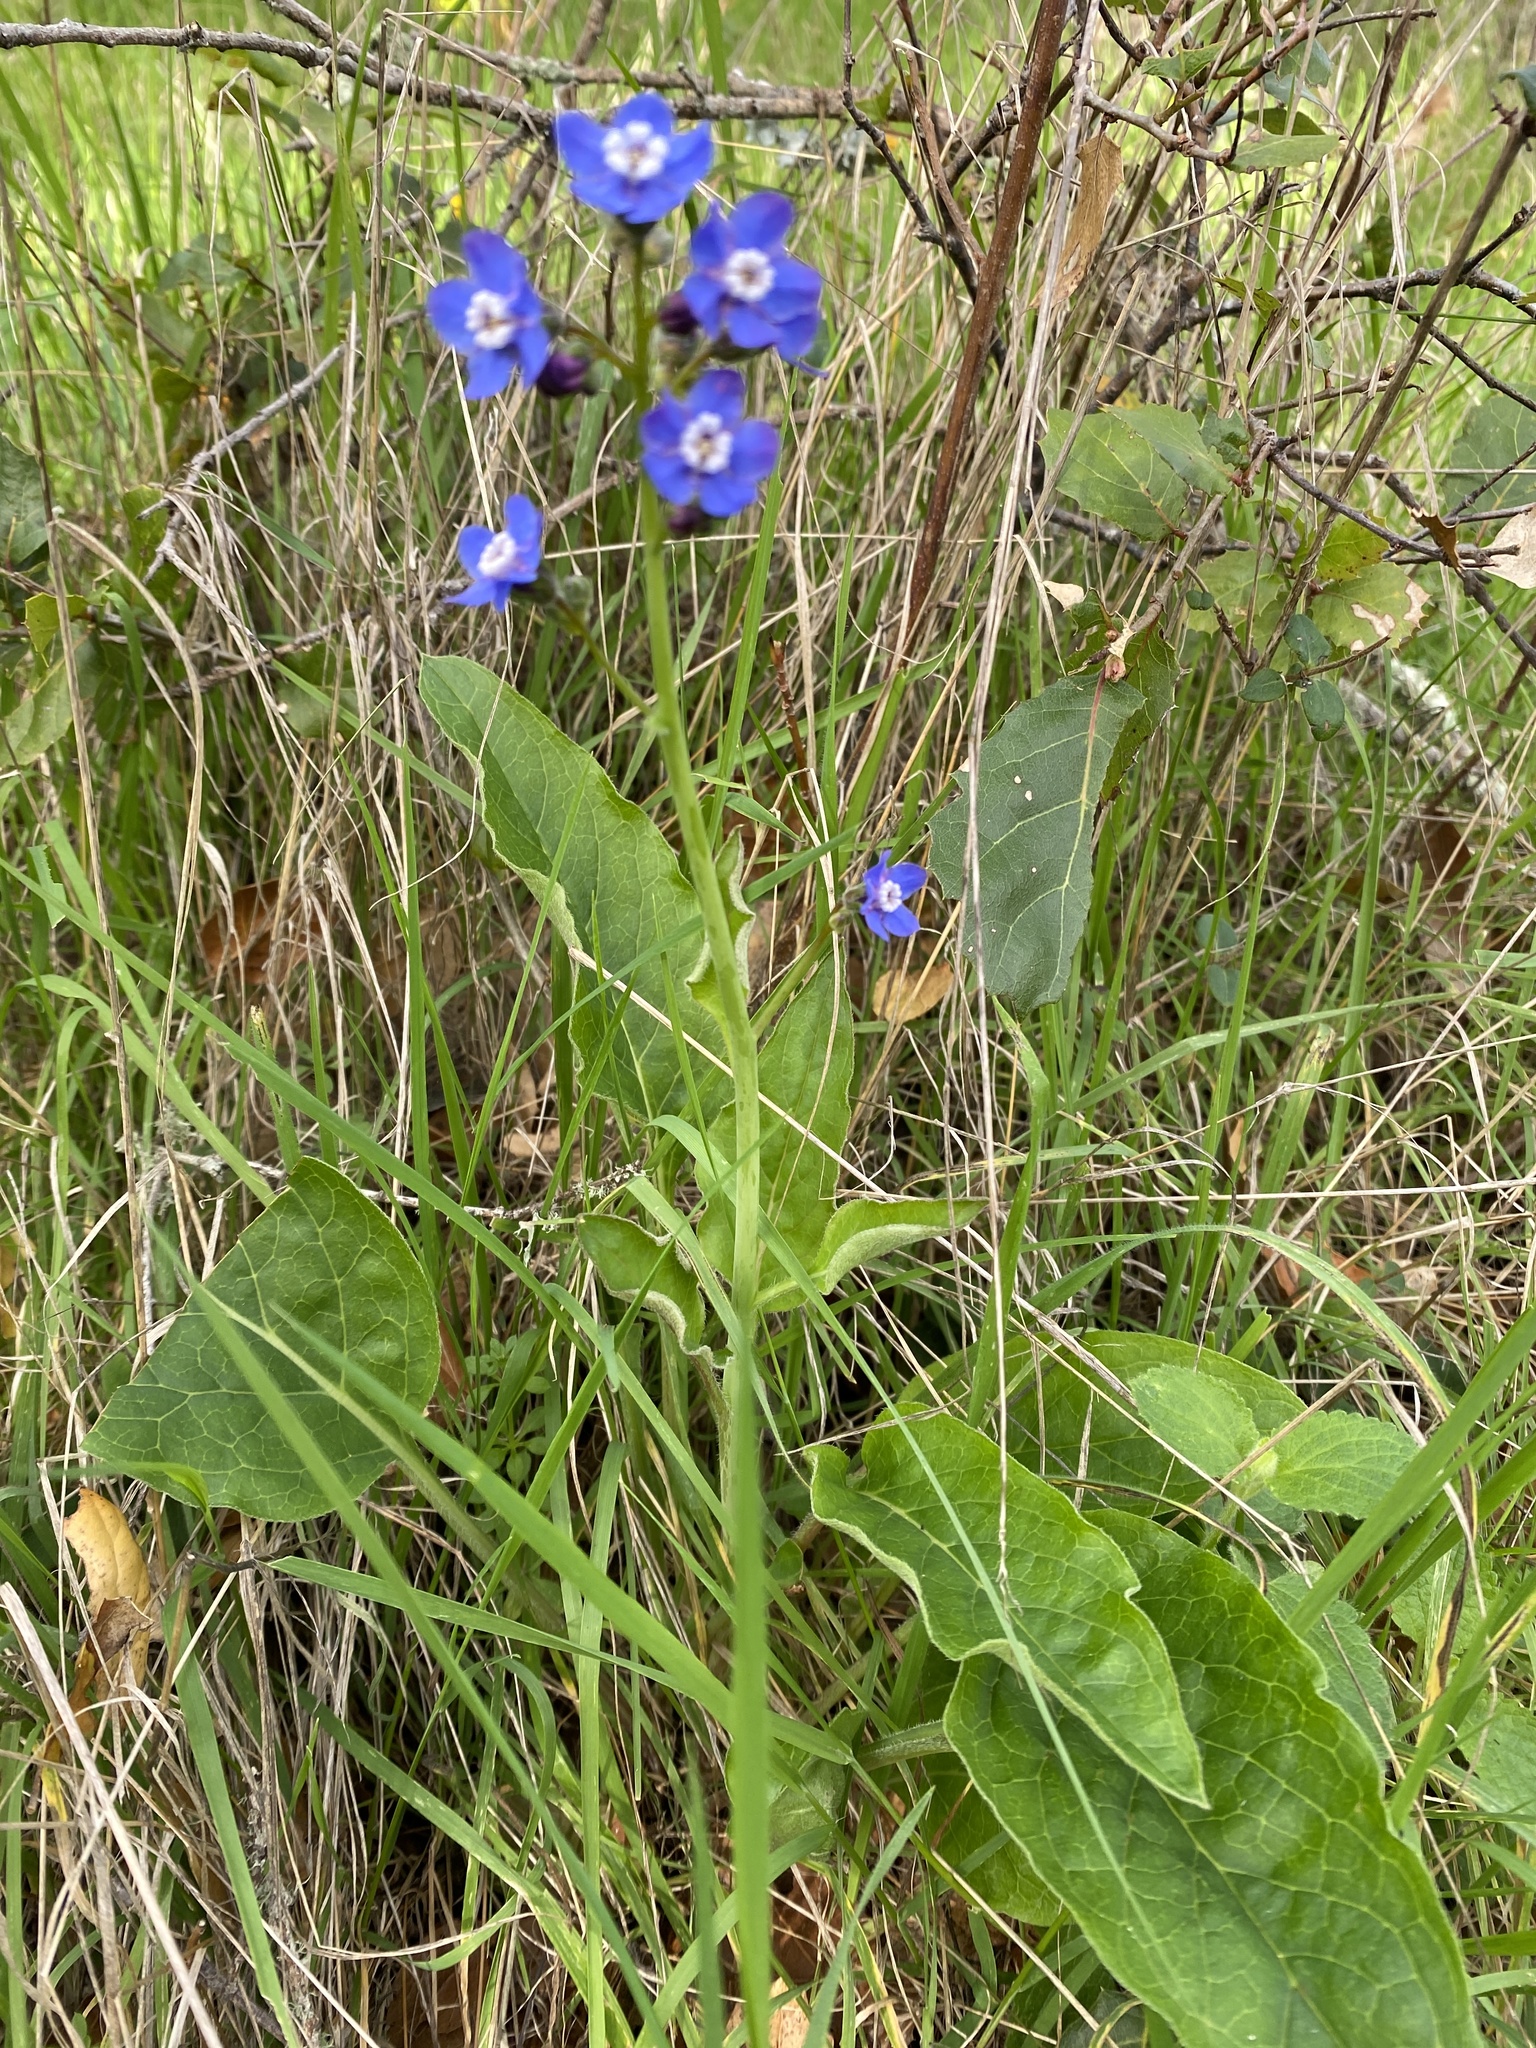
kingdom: Plantae
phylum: Tracheophyta
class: Magnoliopsida
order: Boraginales
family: Boraginaceae
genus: Adelinia
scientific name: Adelinia grande
